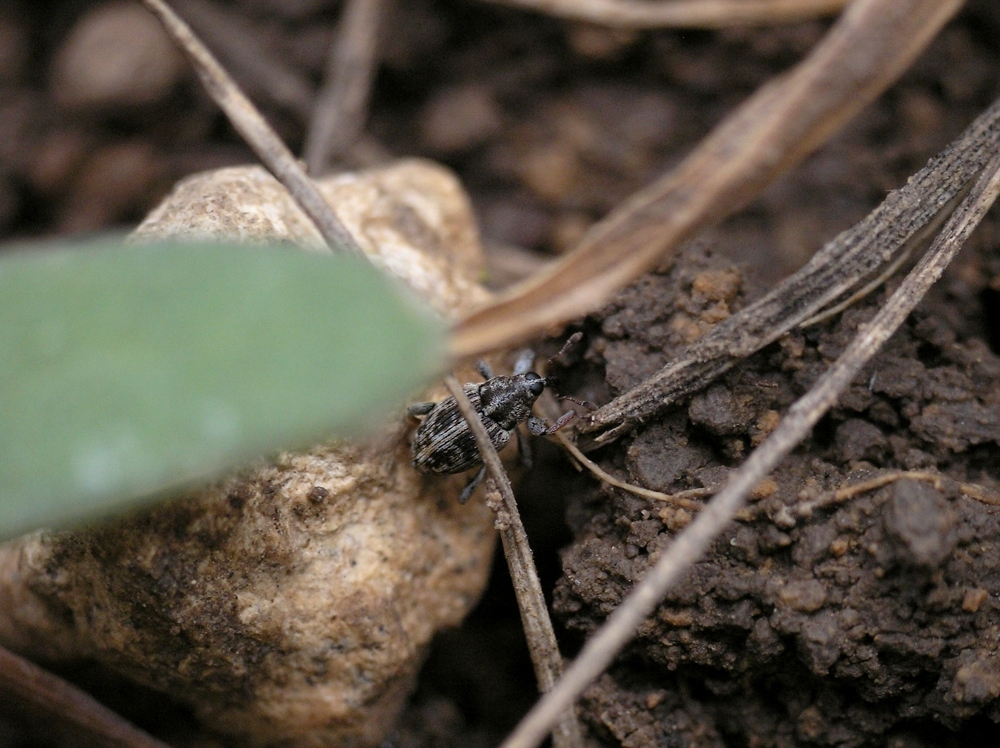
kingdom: Animalia
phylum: Arthropoda
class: Insecta
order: Coleoptera
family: Curculionidae
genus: Poecilma
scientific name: Poecilma
